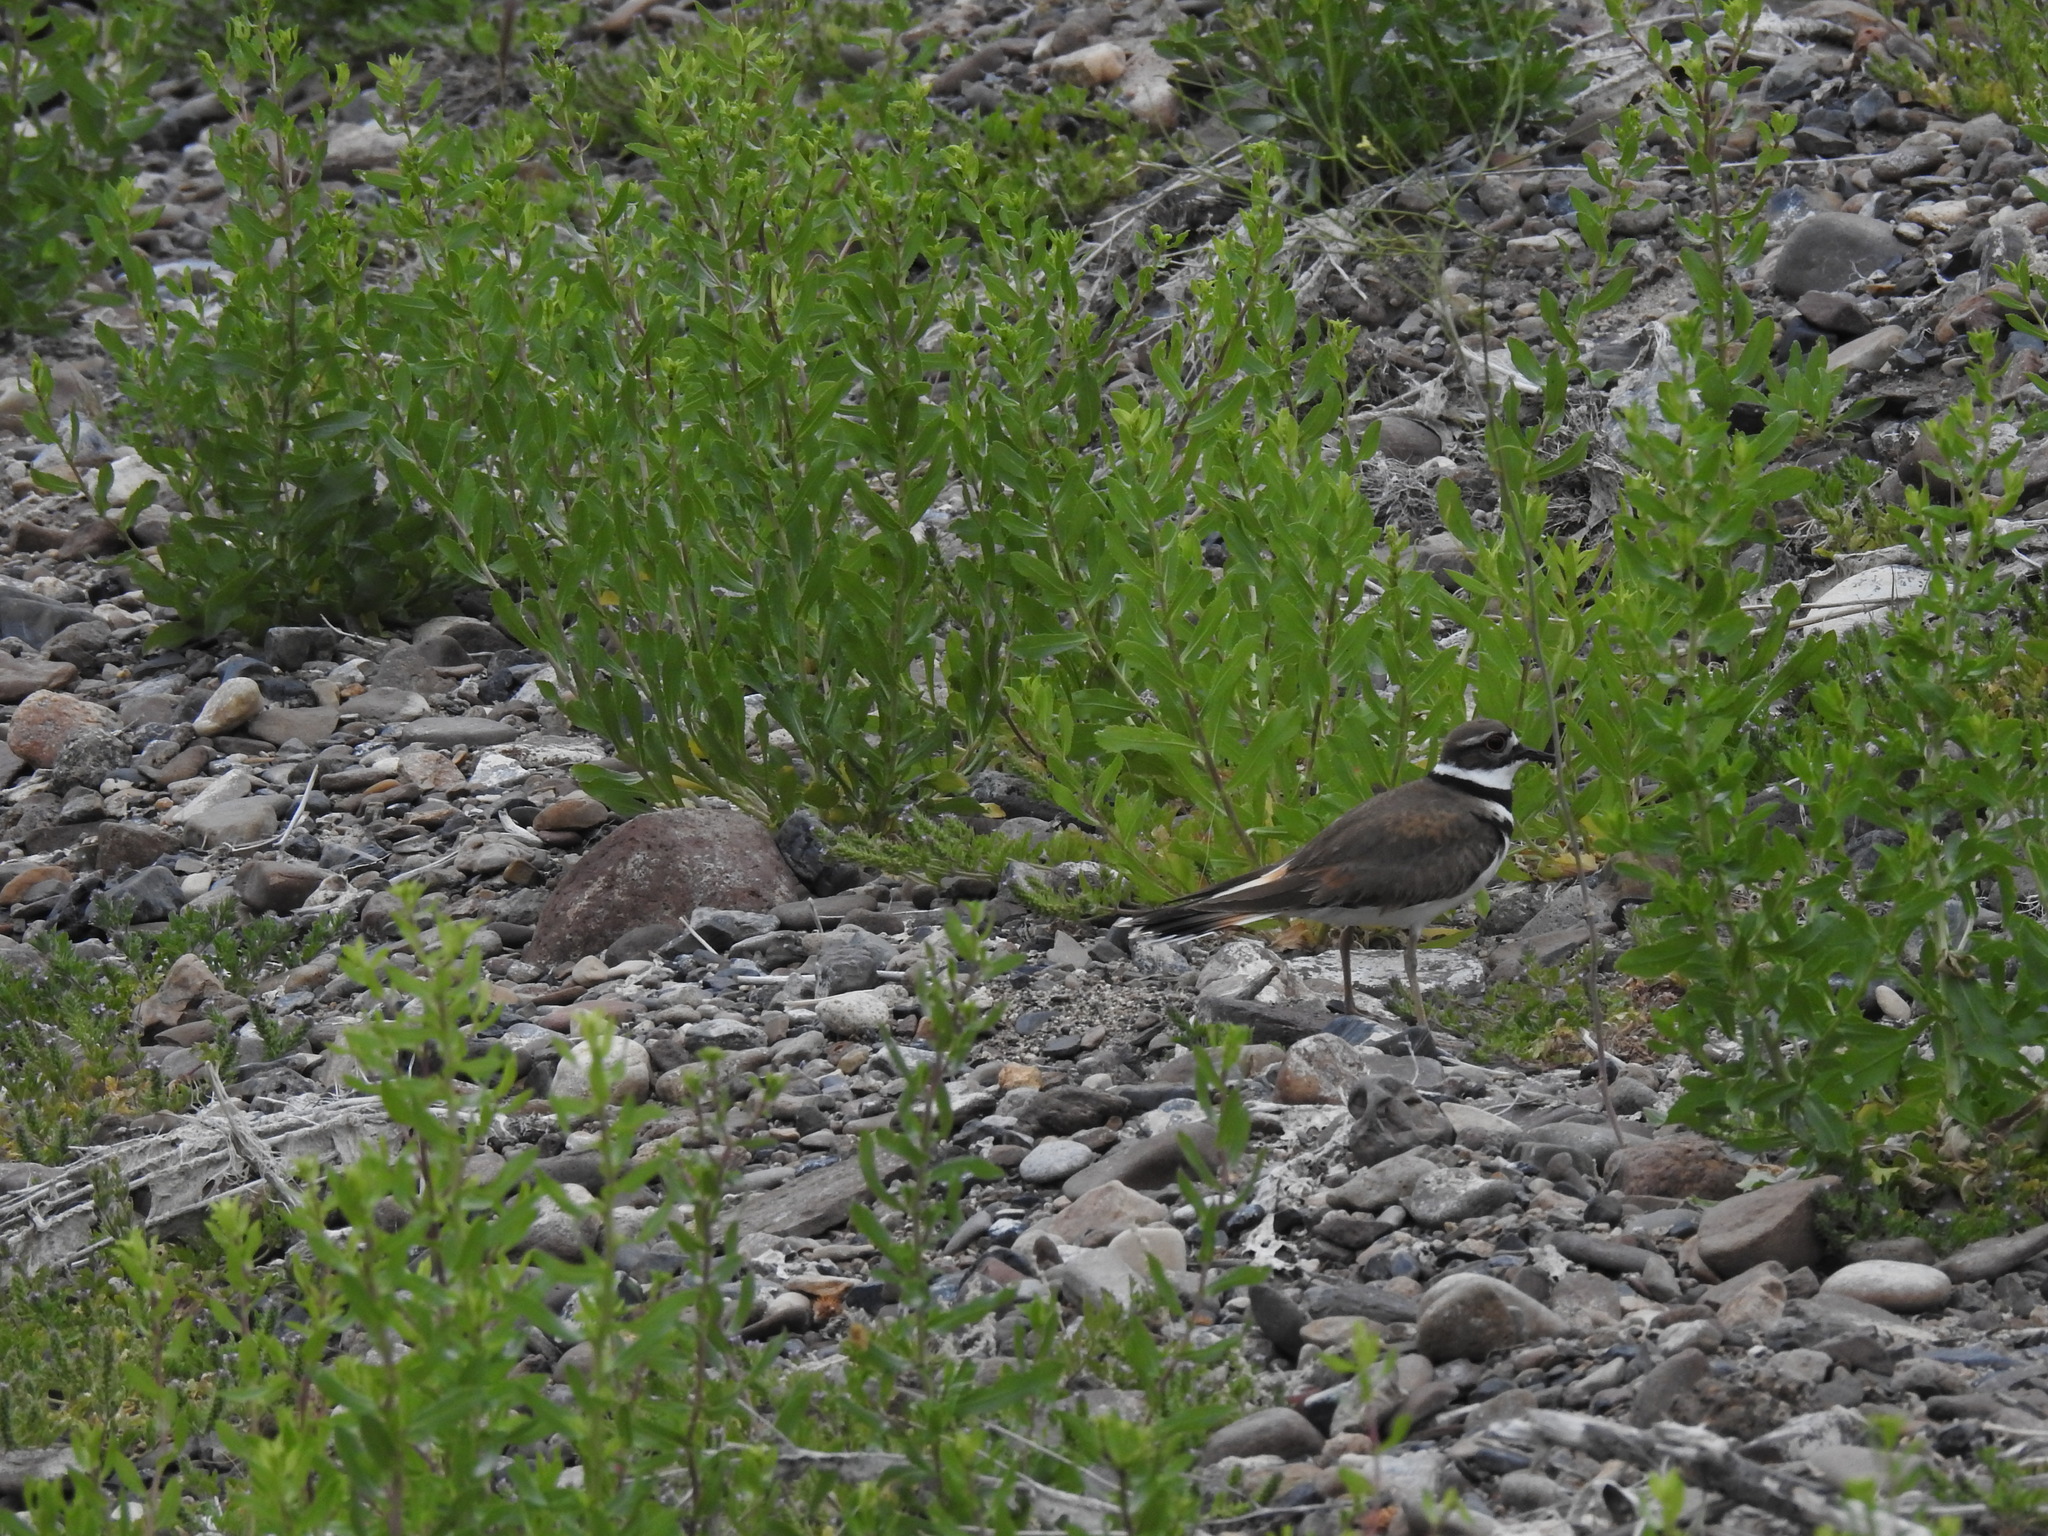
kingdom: Animalia
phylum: Chordata
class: Aves
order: Charadriiformes
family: Charadriidae
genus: Charadrius
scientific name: Charadrius vociferus
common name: Killdeer
